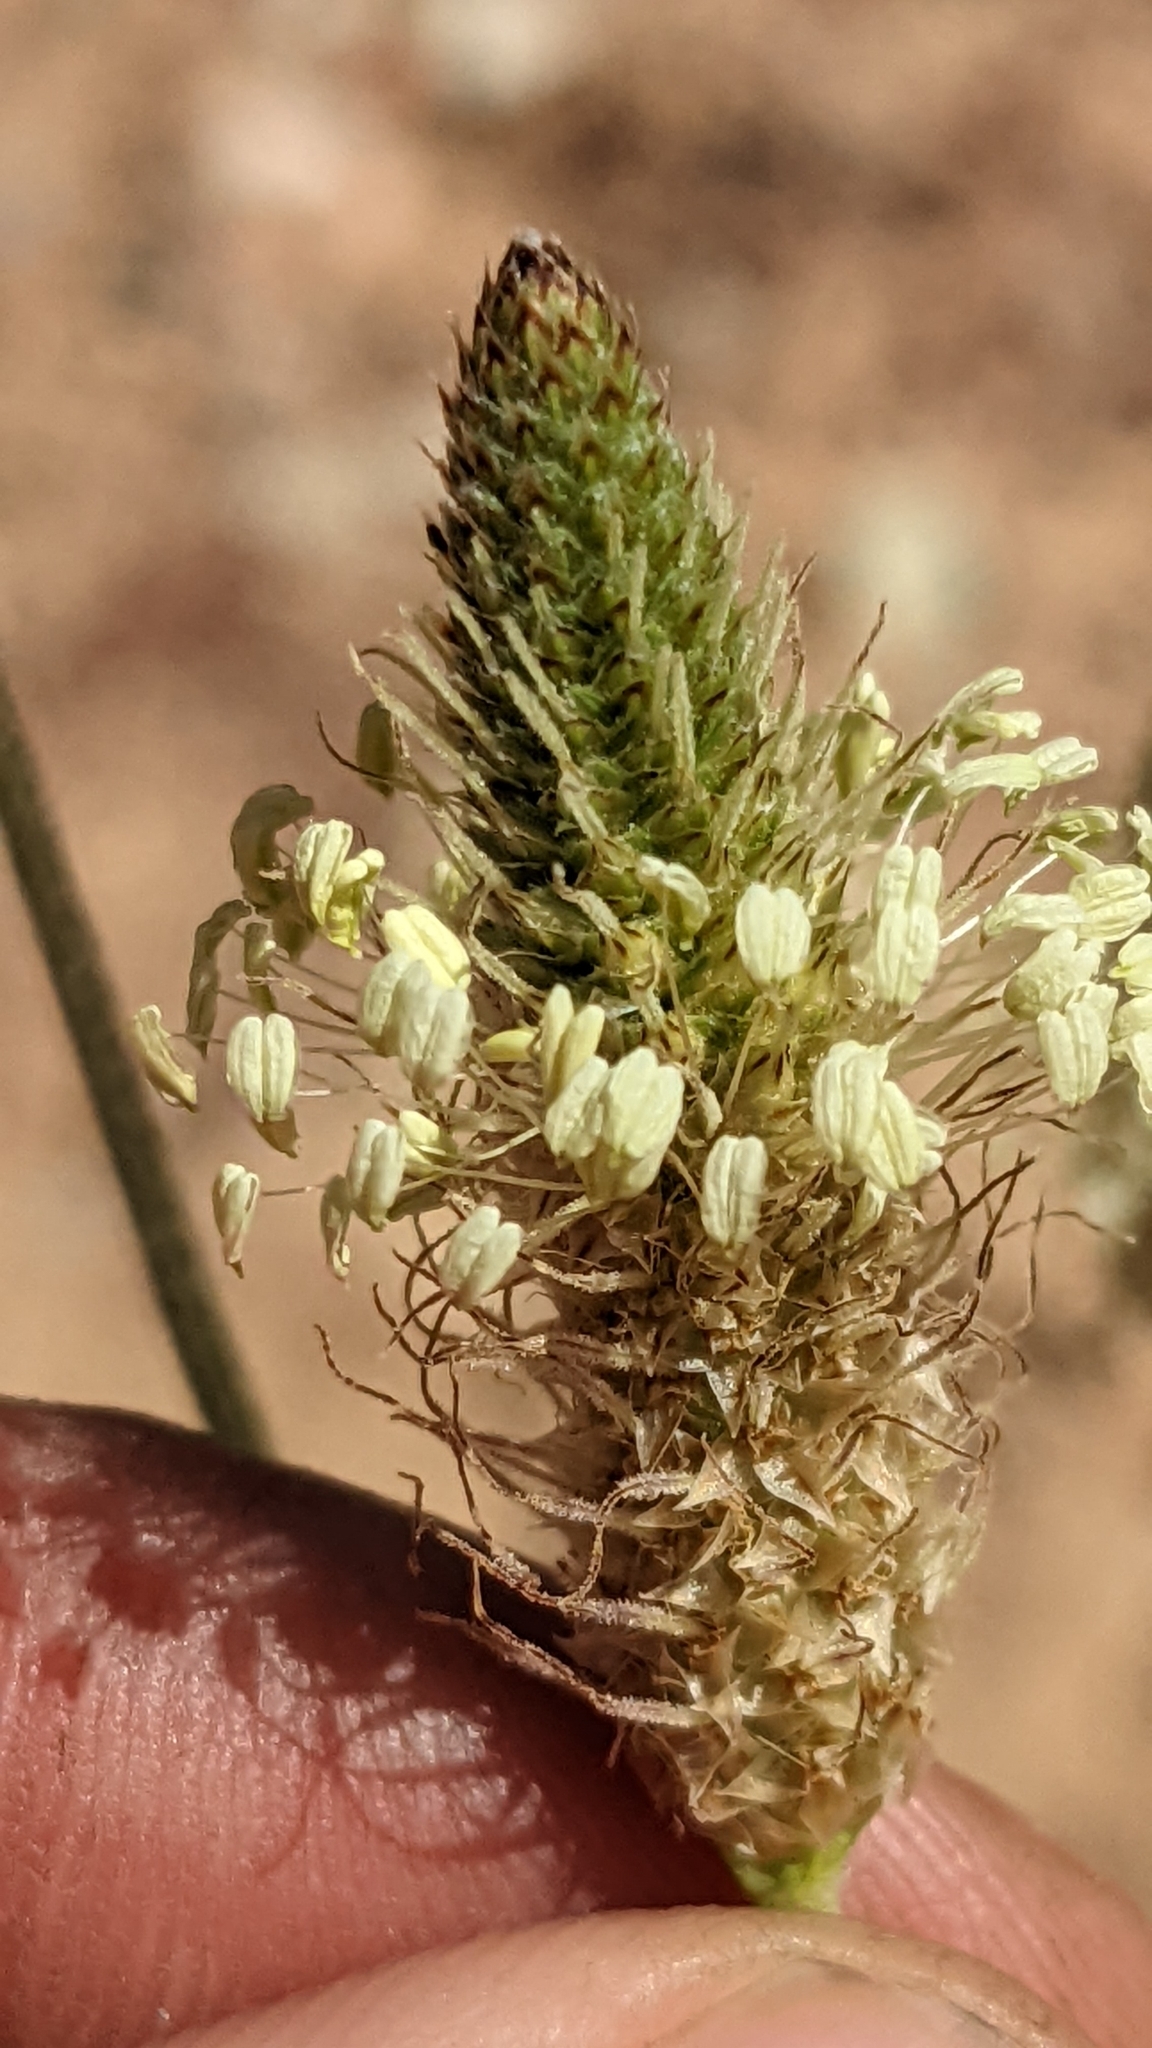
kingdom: Plantae
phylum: Tracheophyta
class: Magnoliopsida
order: Lamiales
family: Plantaginaceae
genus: Plantago
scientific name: Plantago lanceolata
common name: Ribwort plantain
